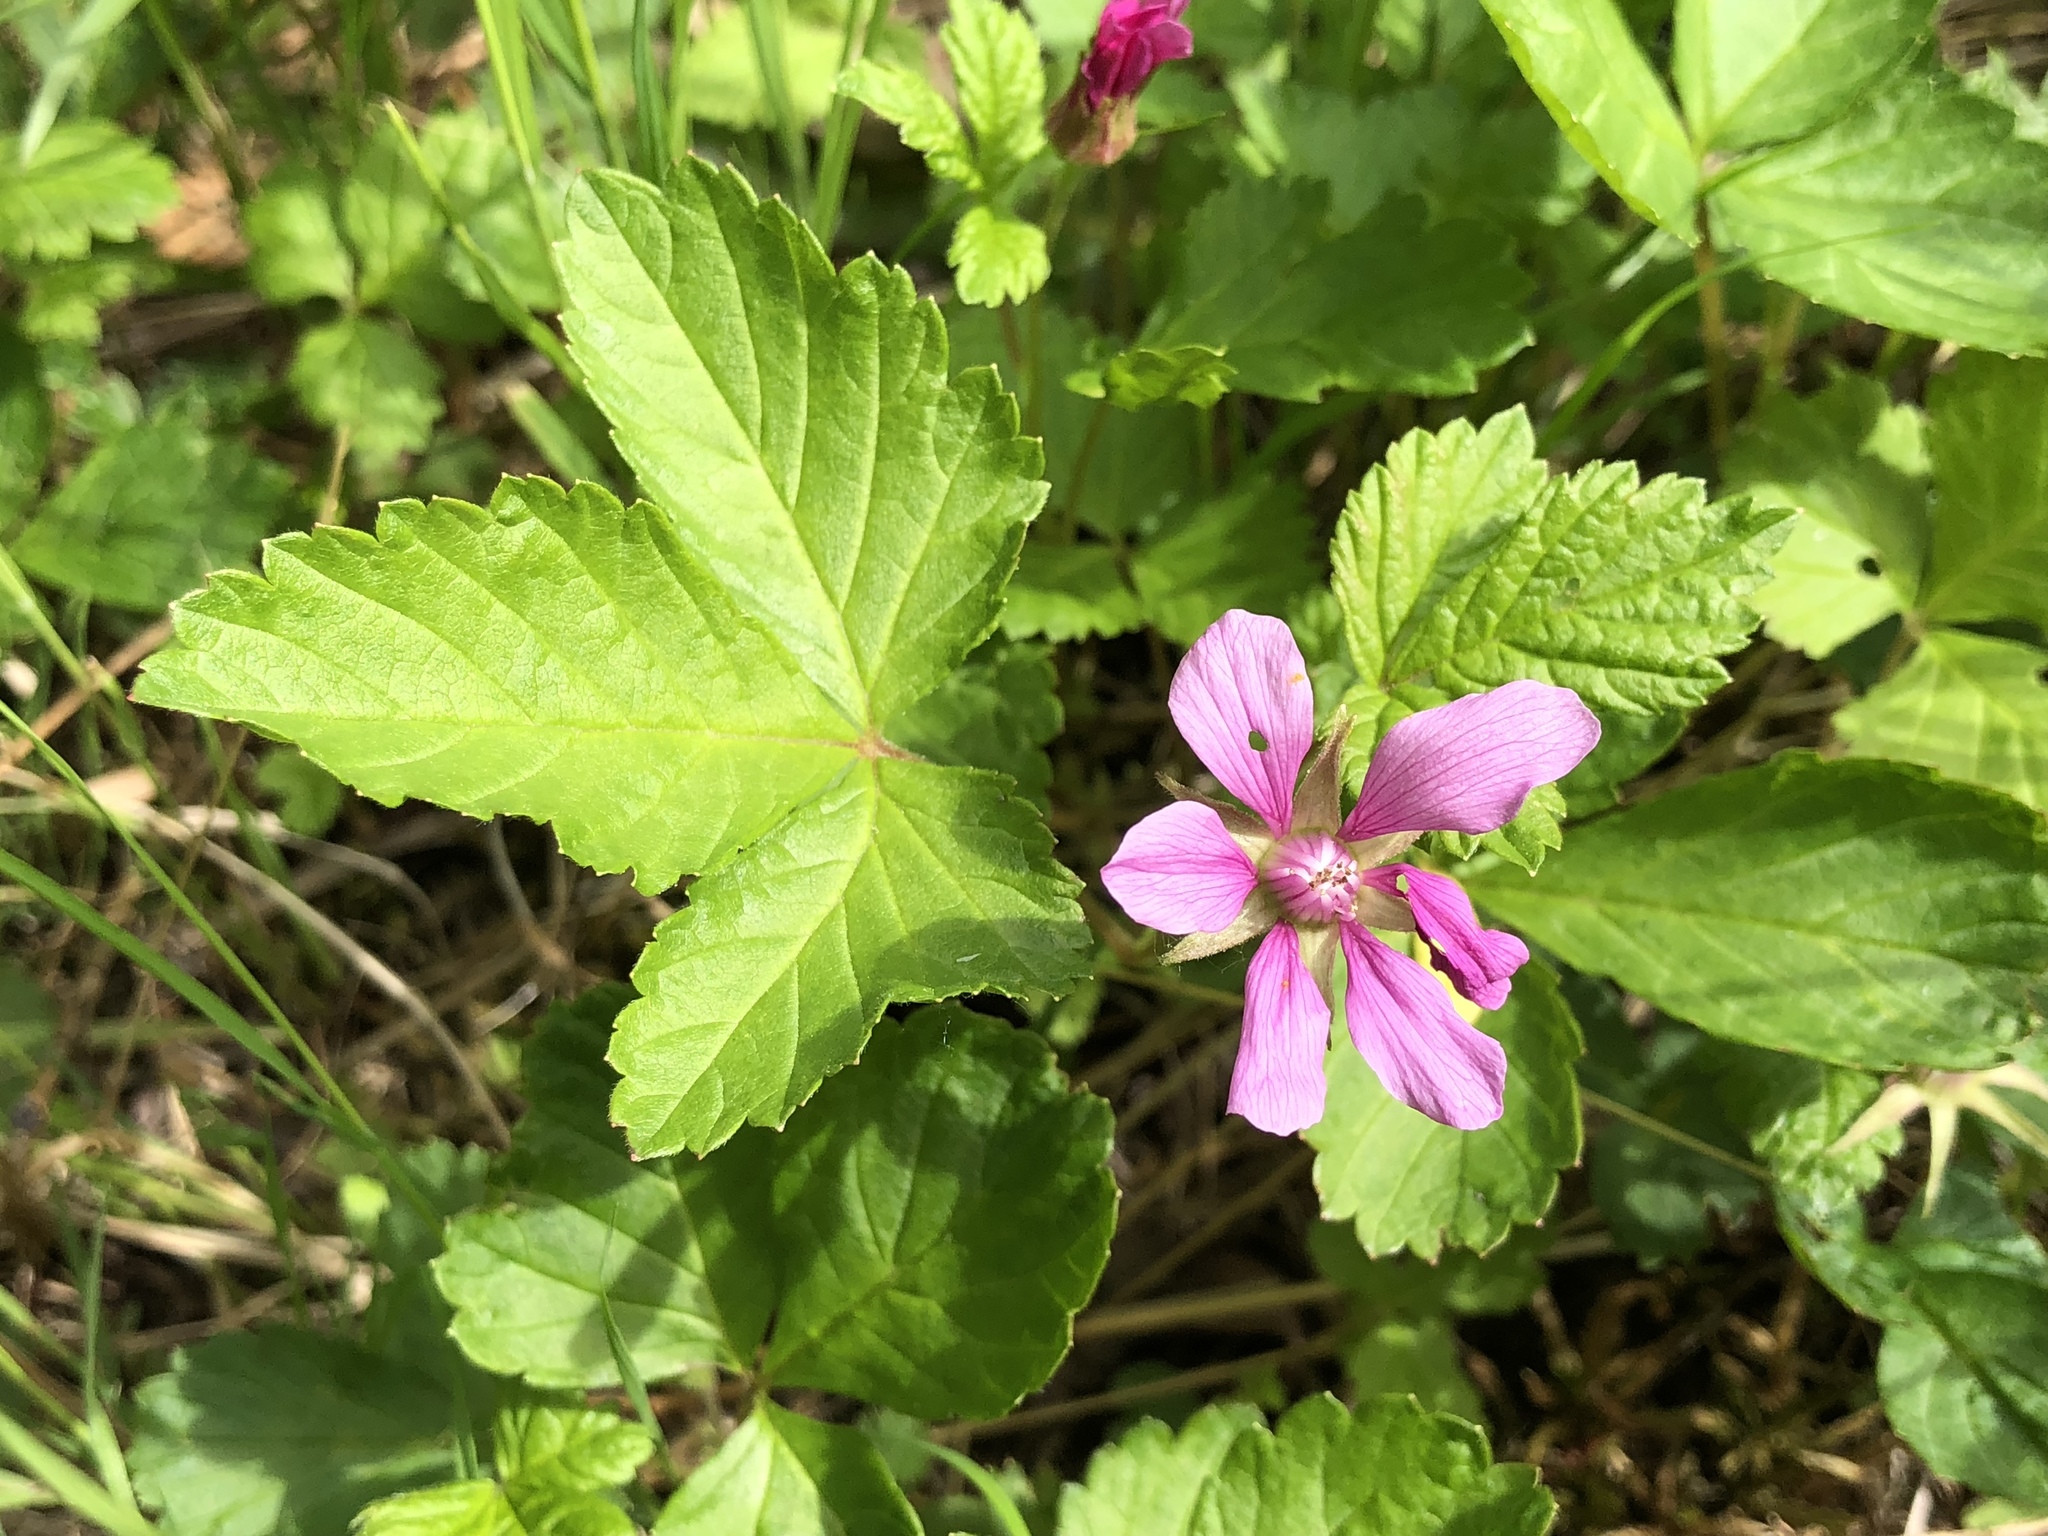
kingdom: Plantae
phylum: Tracheophyta
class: Magnoliopsida
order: Rosales
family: Rosaceae
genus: Rubus
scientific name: Rubus arcticus
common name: Arctic bramble
